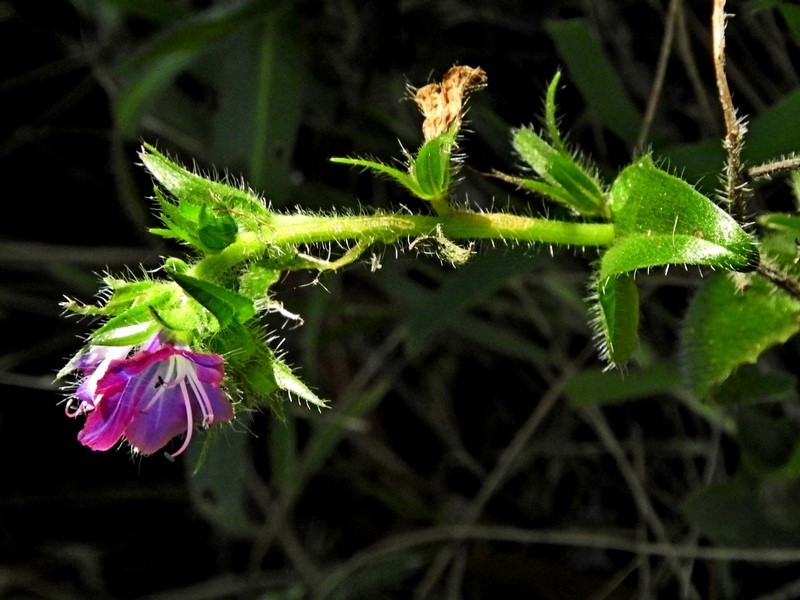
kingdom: Plantae
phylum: Tracheophyta
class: Magnoliopsida
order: Boraginales
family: Boraginaceae
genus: Echium
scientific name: Echium plantagineum
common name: Purple viper's-bugloss
